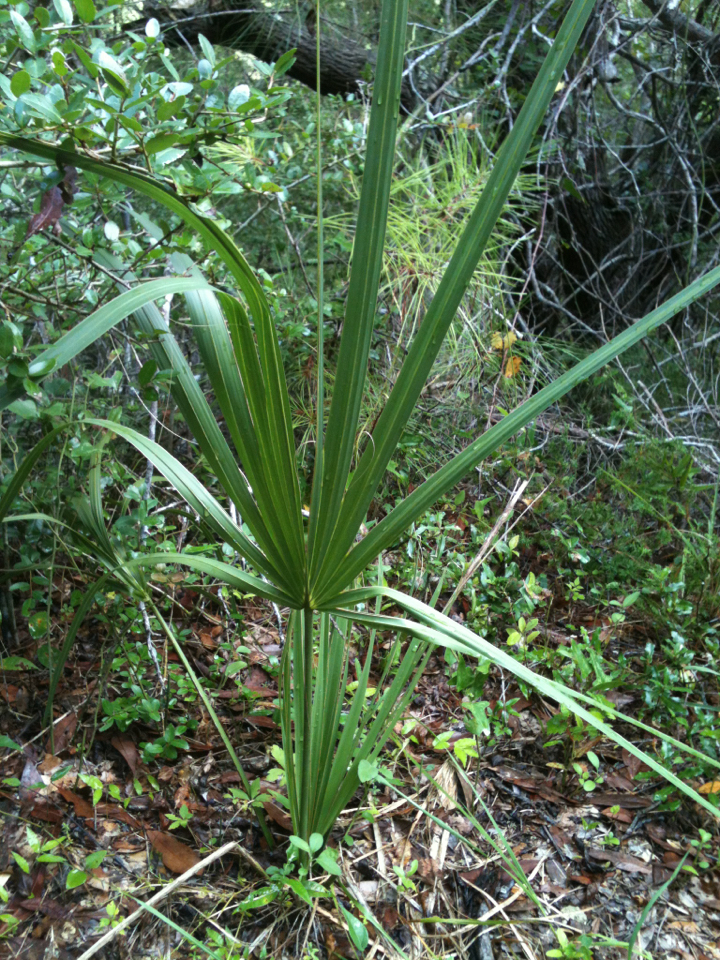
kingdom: Plantae
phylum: Tracheophyta
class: Liliopsida
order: Arecales
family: Arecaceae
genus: Sabal
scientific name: Sabal minor
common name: Dwarf palmetto
